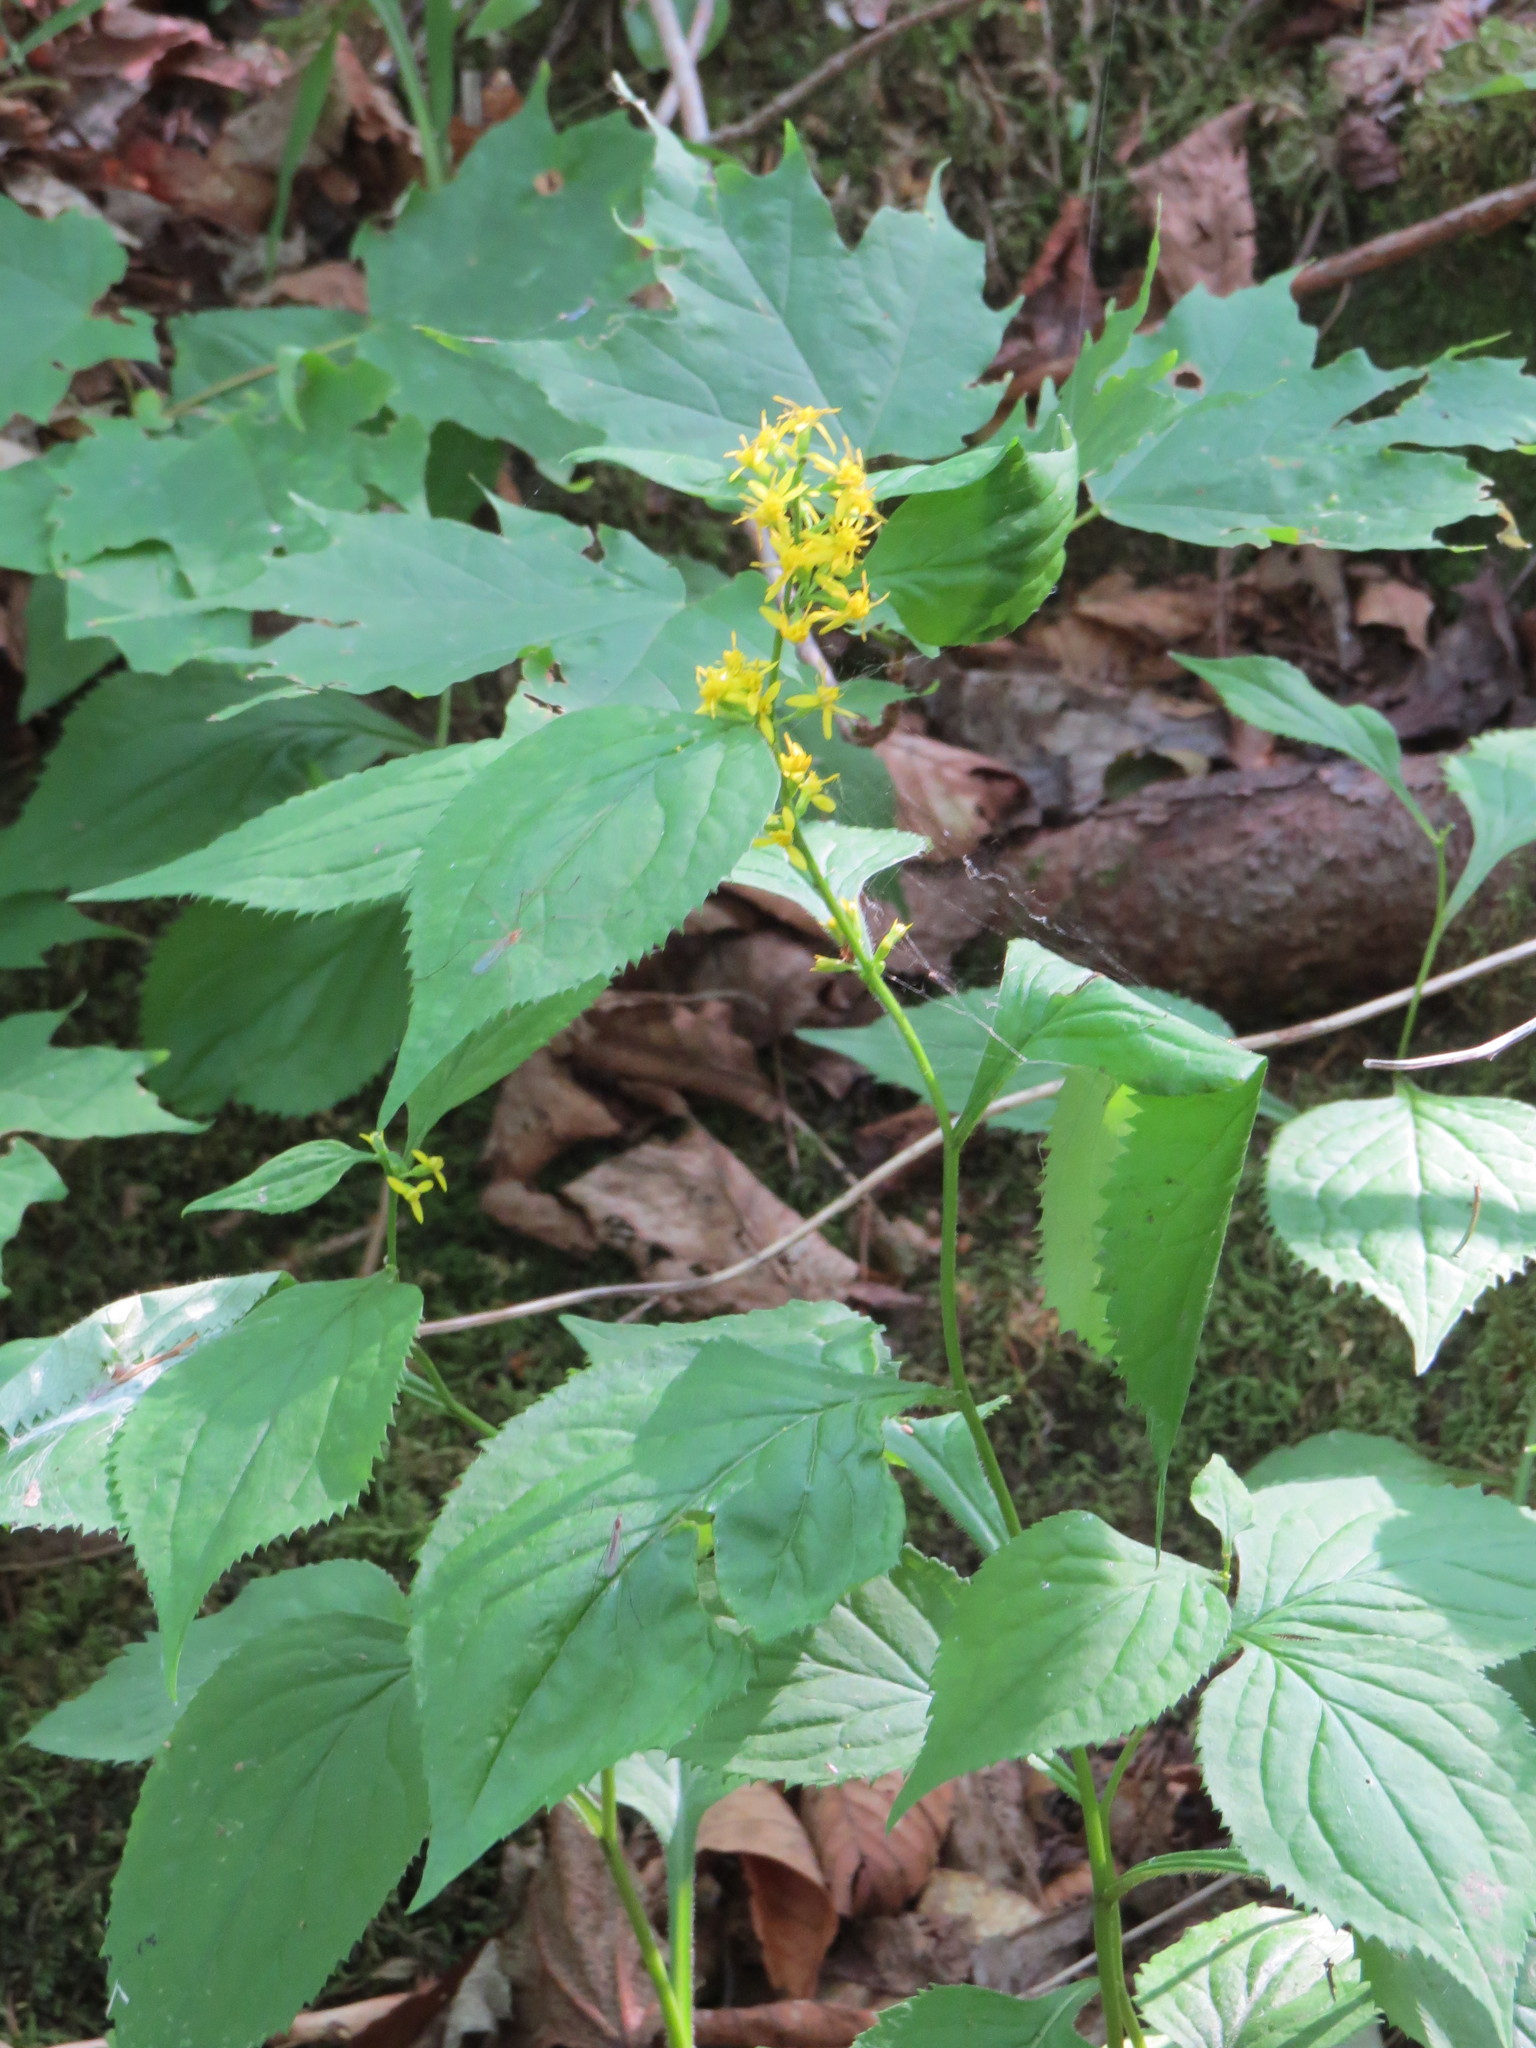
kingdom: Plantae
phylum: Tracheophyta
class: Magnoliopsida
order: Asterales
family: Asteraceae
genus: Solidago
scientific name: Solidago flexicaulis
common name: Zig-zag goldenrod
